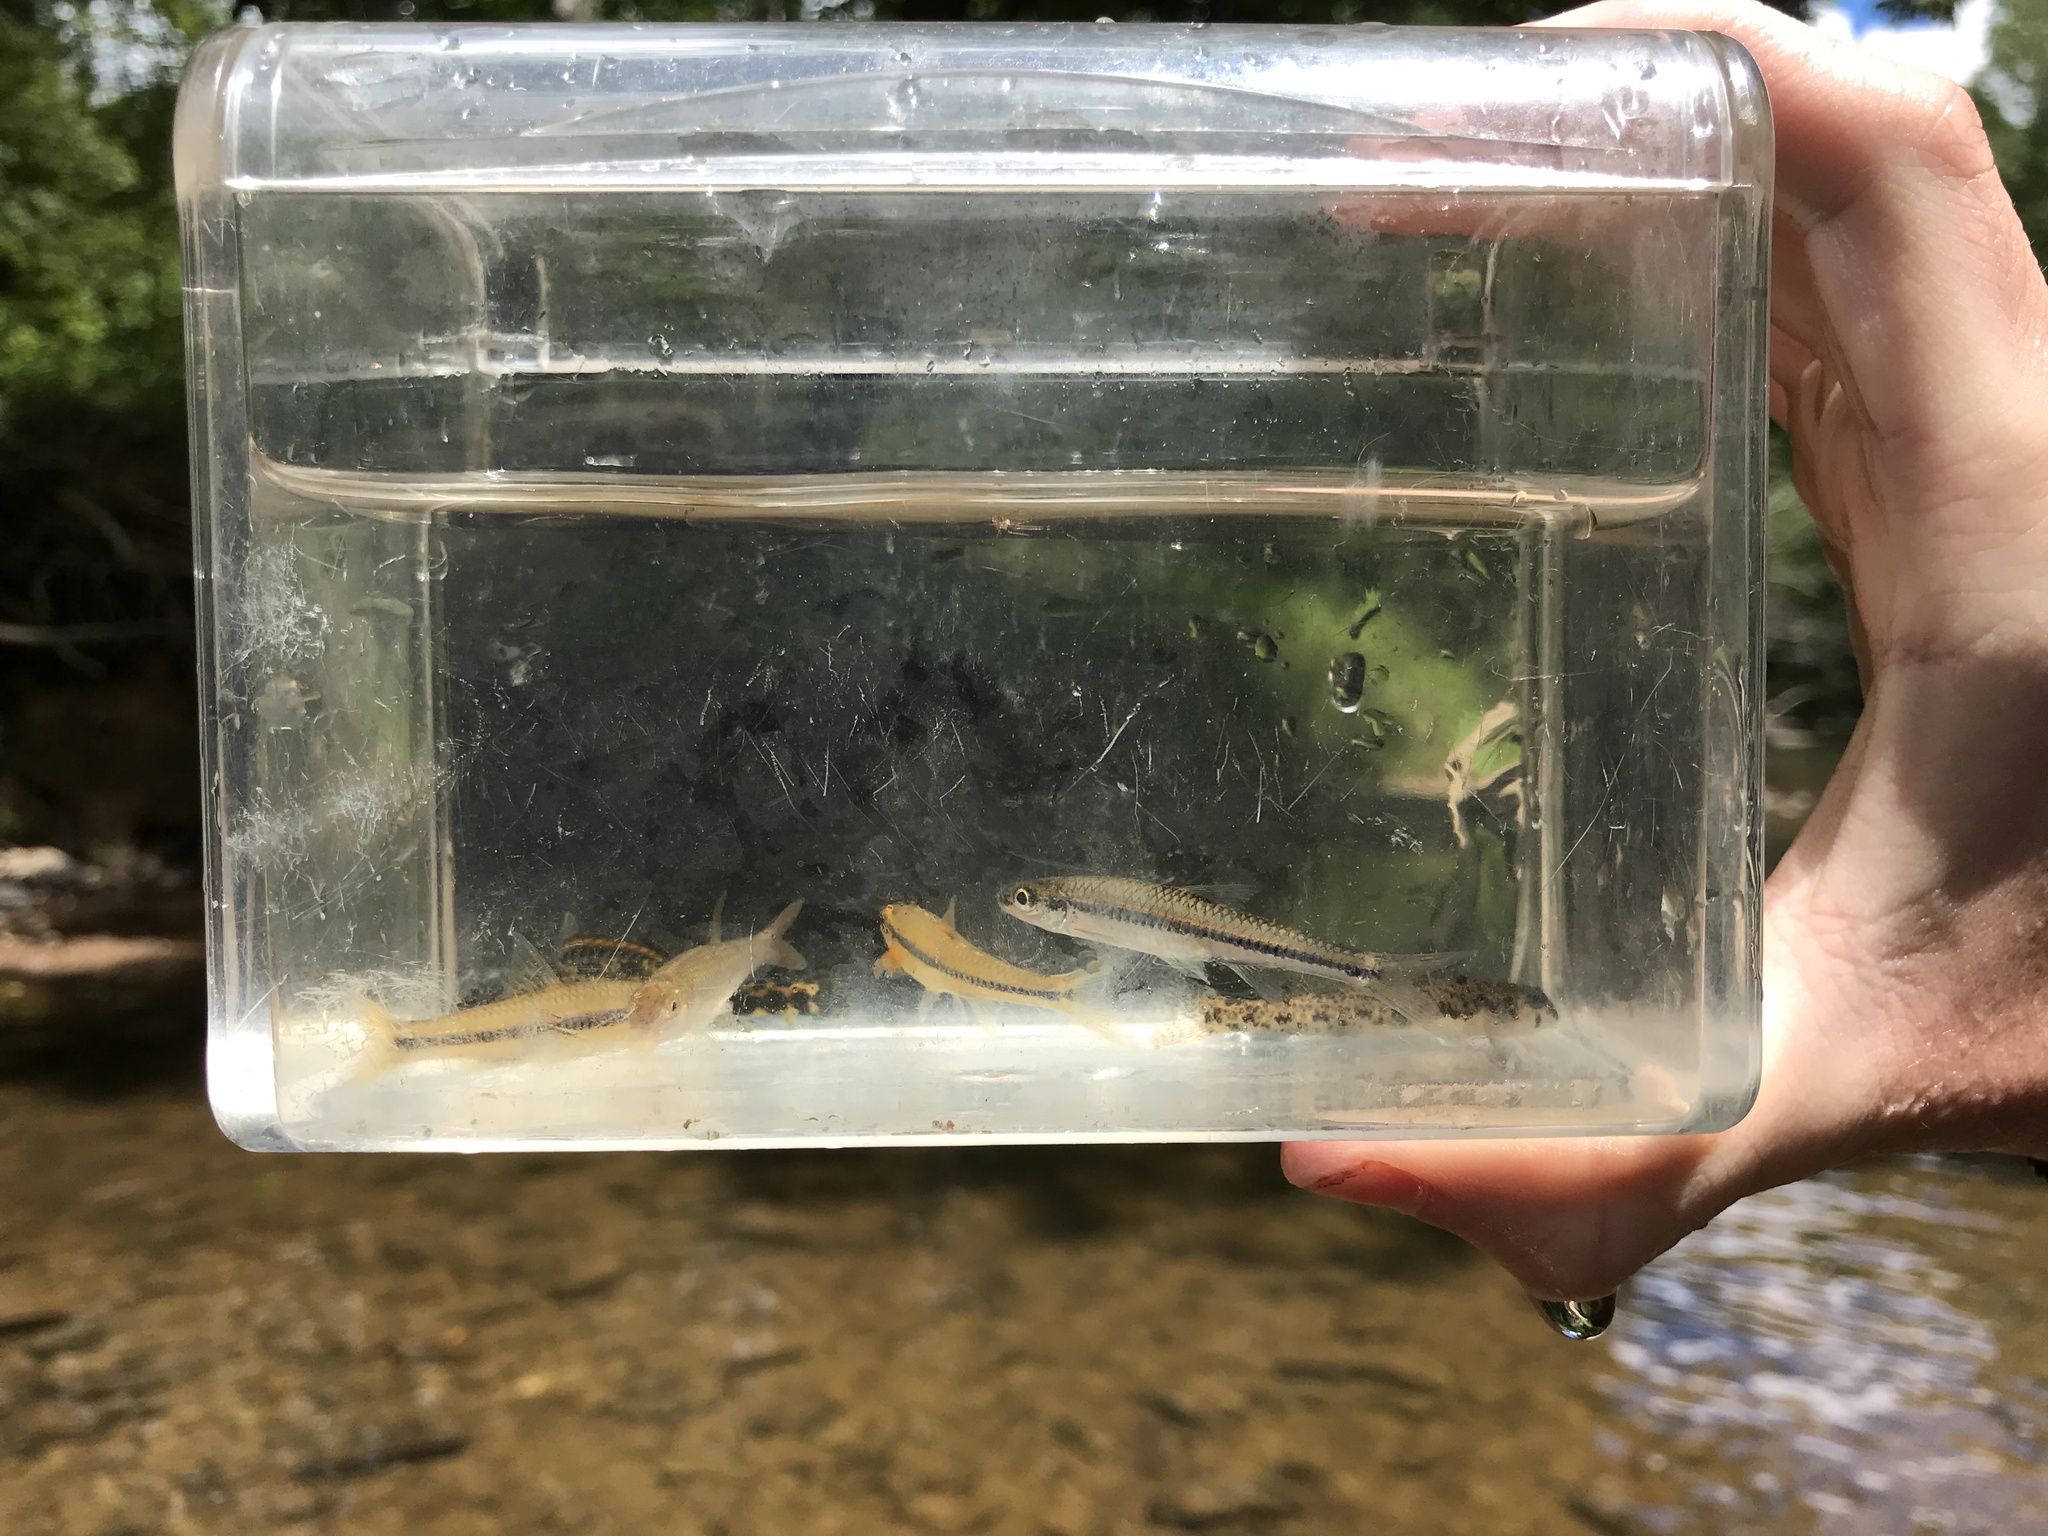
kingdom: Animalia
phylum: Chordata
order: Cypriniformes
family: Cyprinidae
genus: Notropis
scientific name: Notropis
